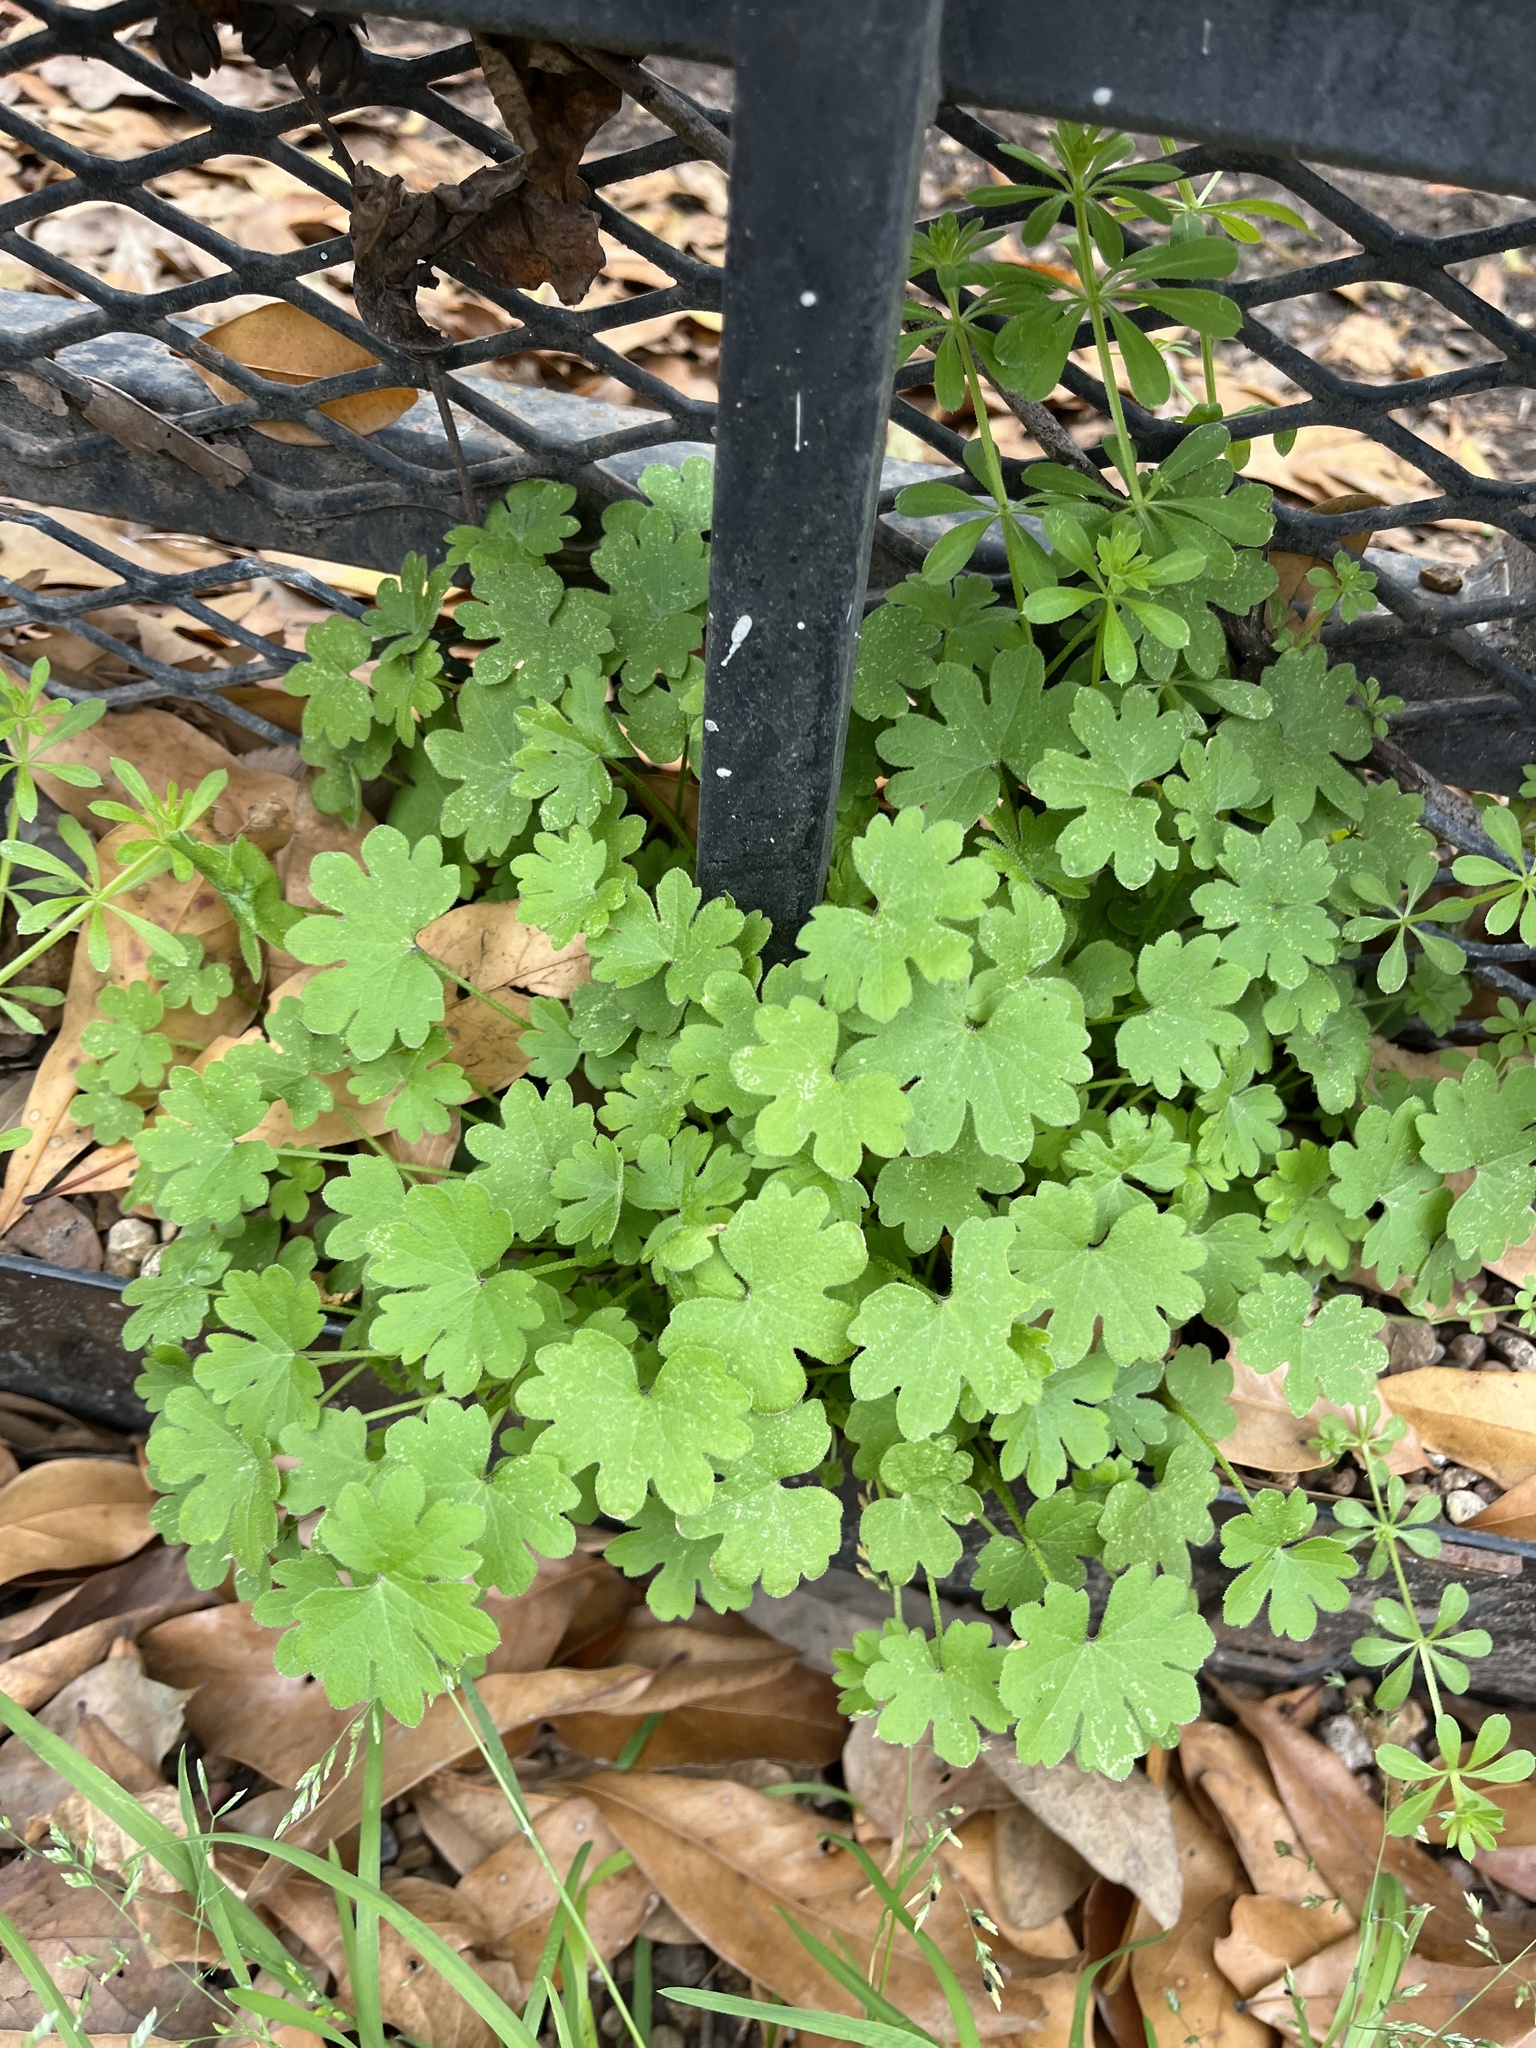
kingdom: Plantae
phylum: Tracheophyta
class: Magnoliopsida
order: Apiales
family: Apiaceae
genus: Bowlesia
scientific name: Bowlesia incana
